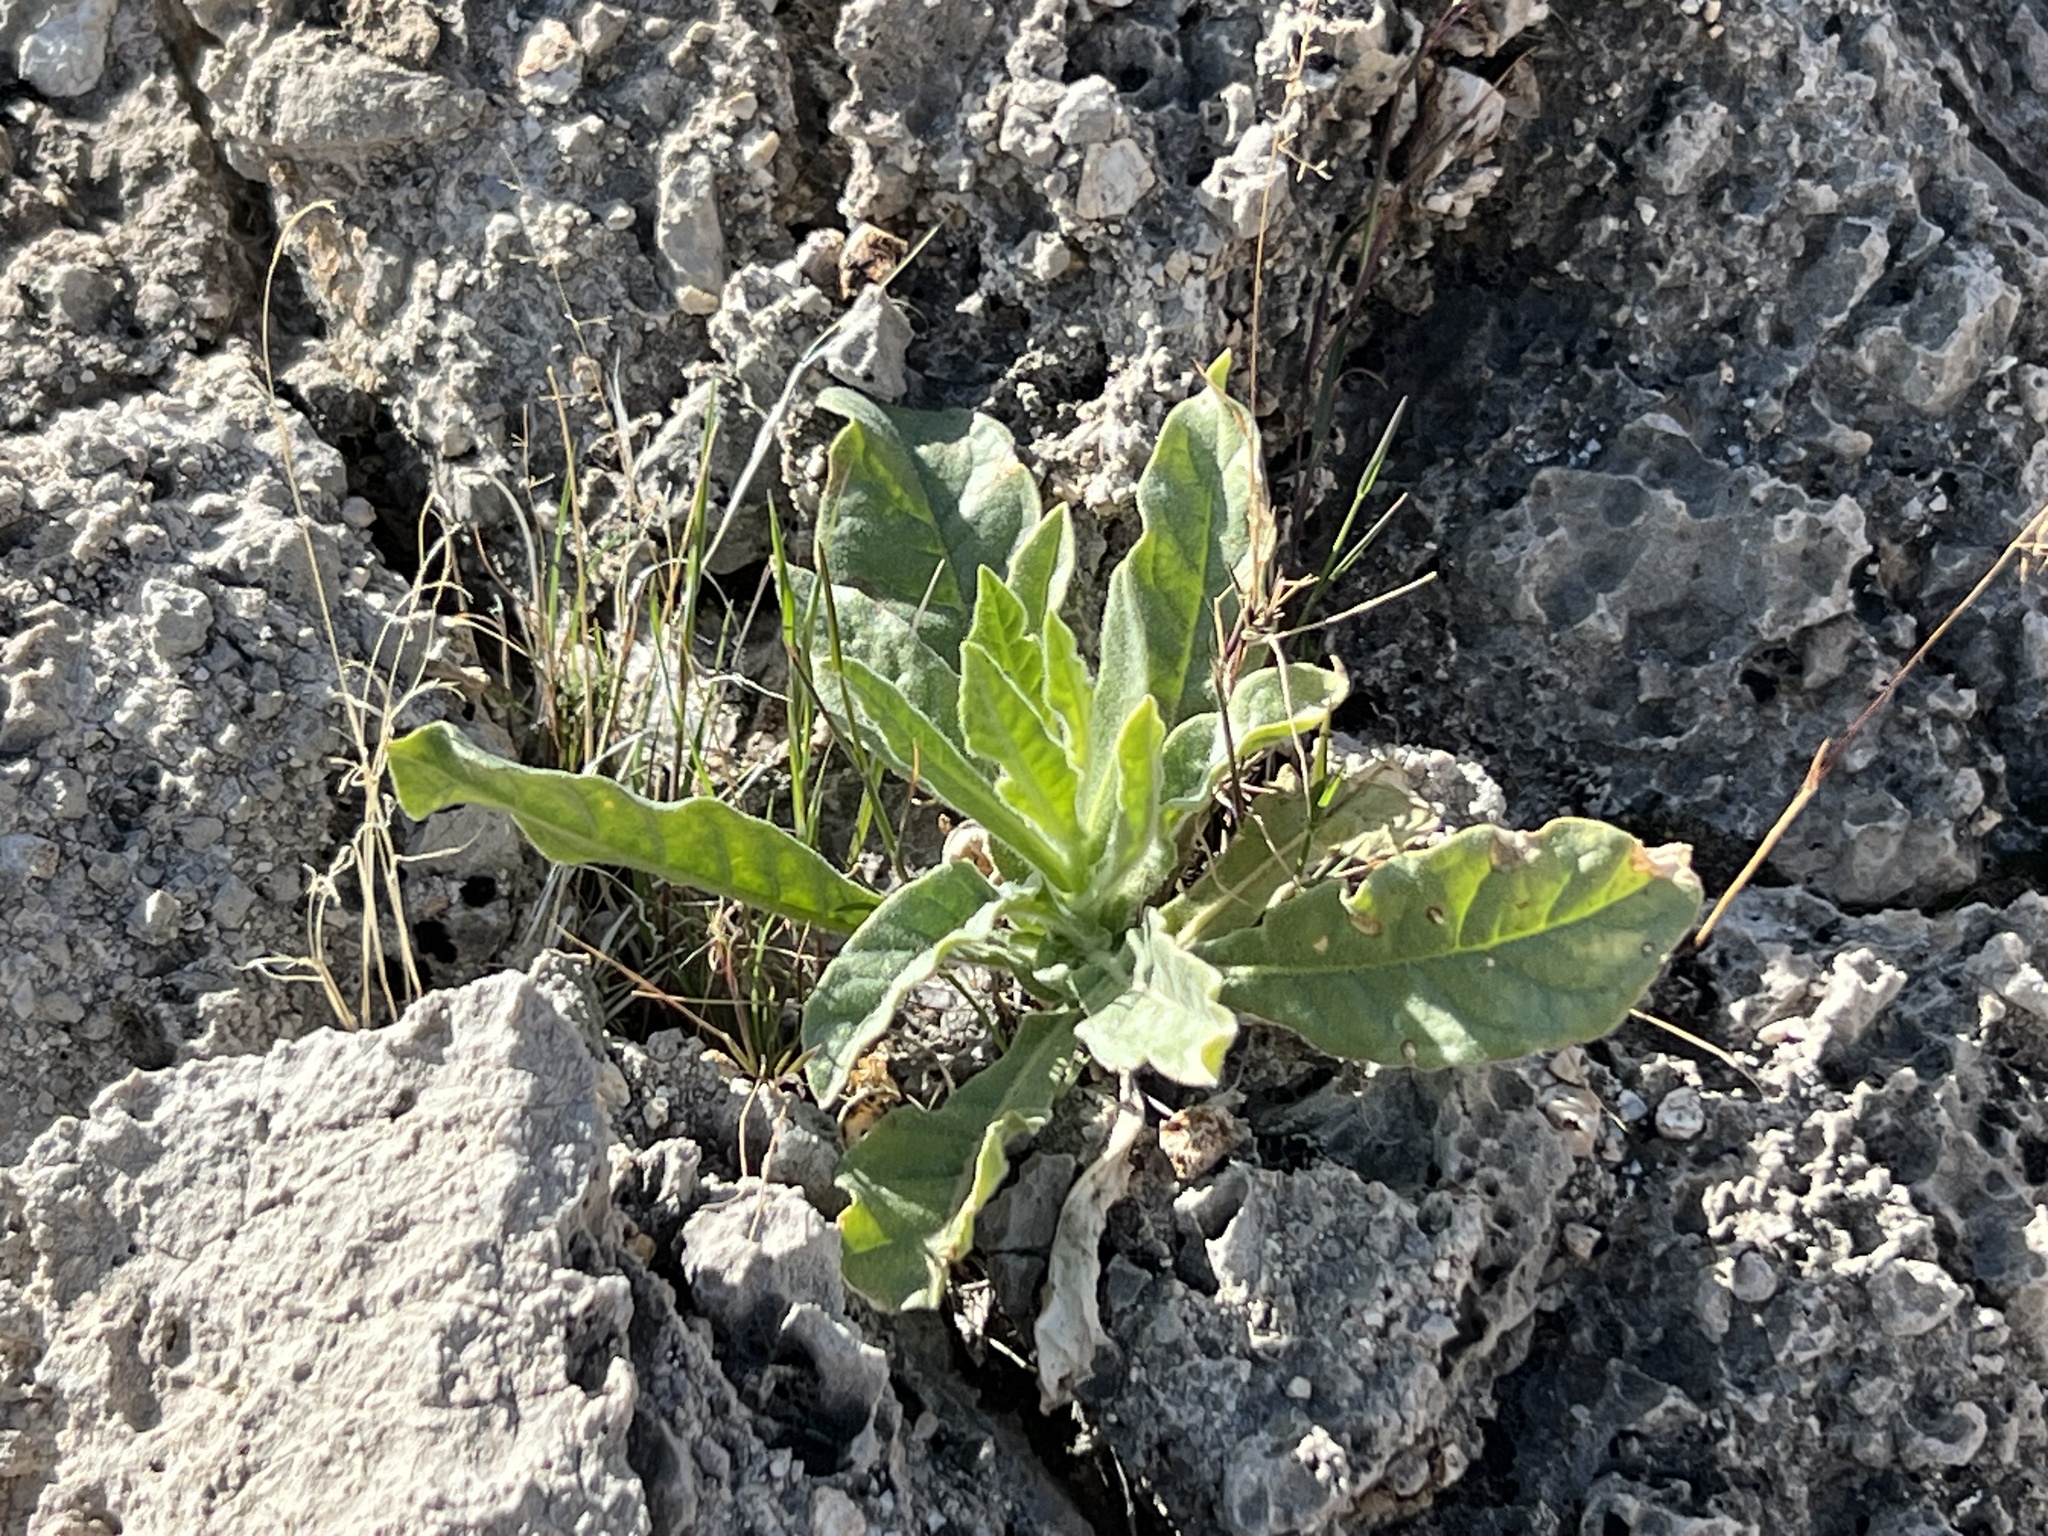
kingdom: Plantae
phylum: Tracheophyta
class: Magnoliopsida
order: Solanales
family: Solanaceae
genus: Nicotiana
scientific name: Nicotiana obtusifolia
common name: Desert tobacco
